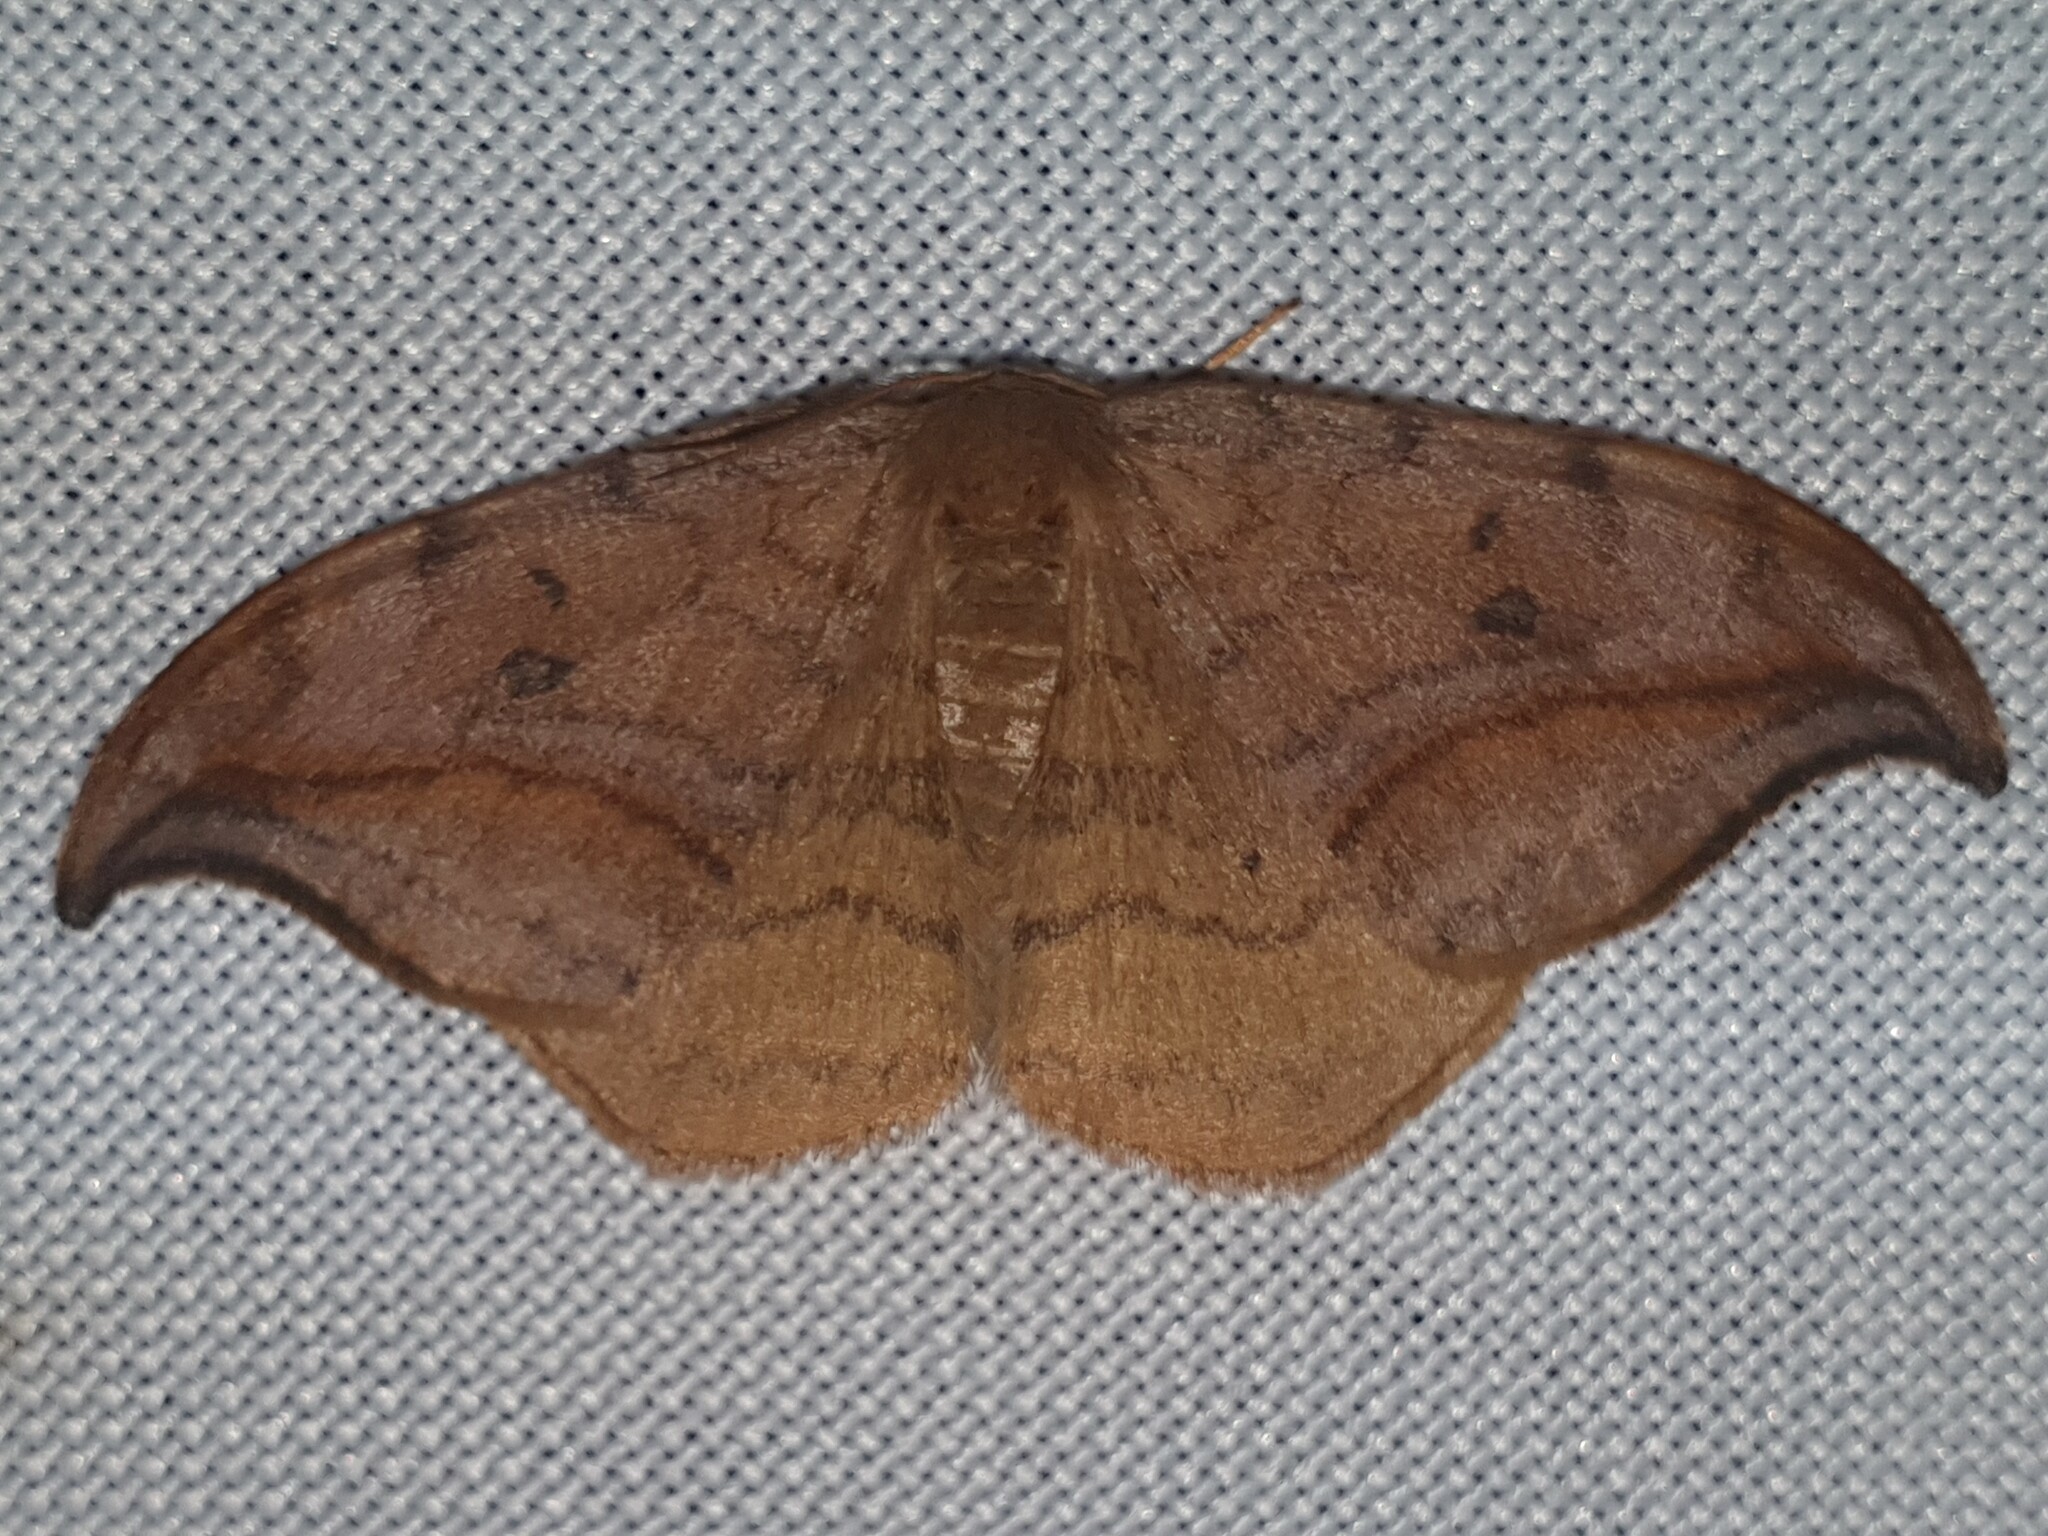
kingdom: Animalia
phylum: Arthropoda
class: Insecta
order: Lepidoptera
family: Drepanidae
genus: Drepana
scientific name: Drepana curvatula
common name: Dusky hook-tip
